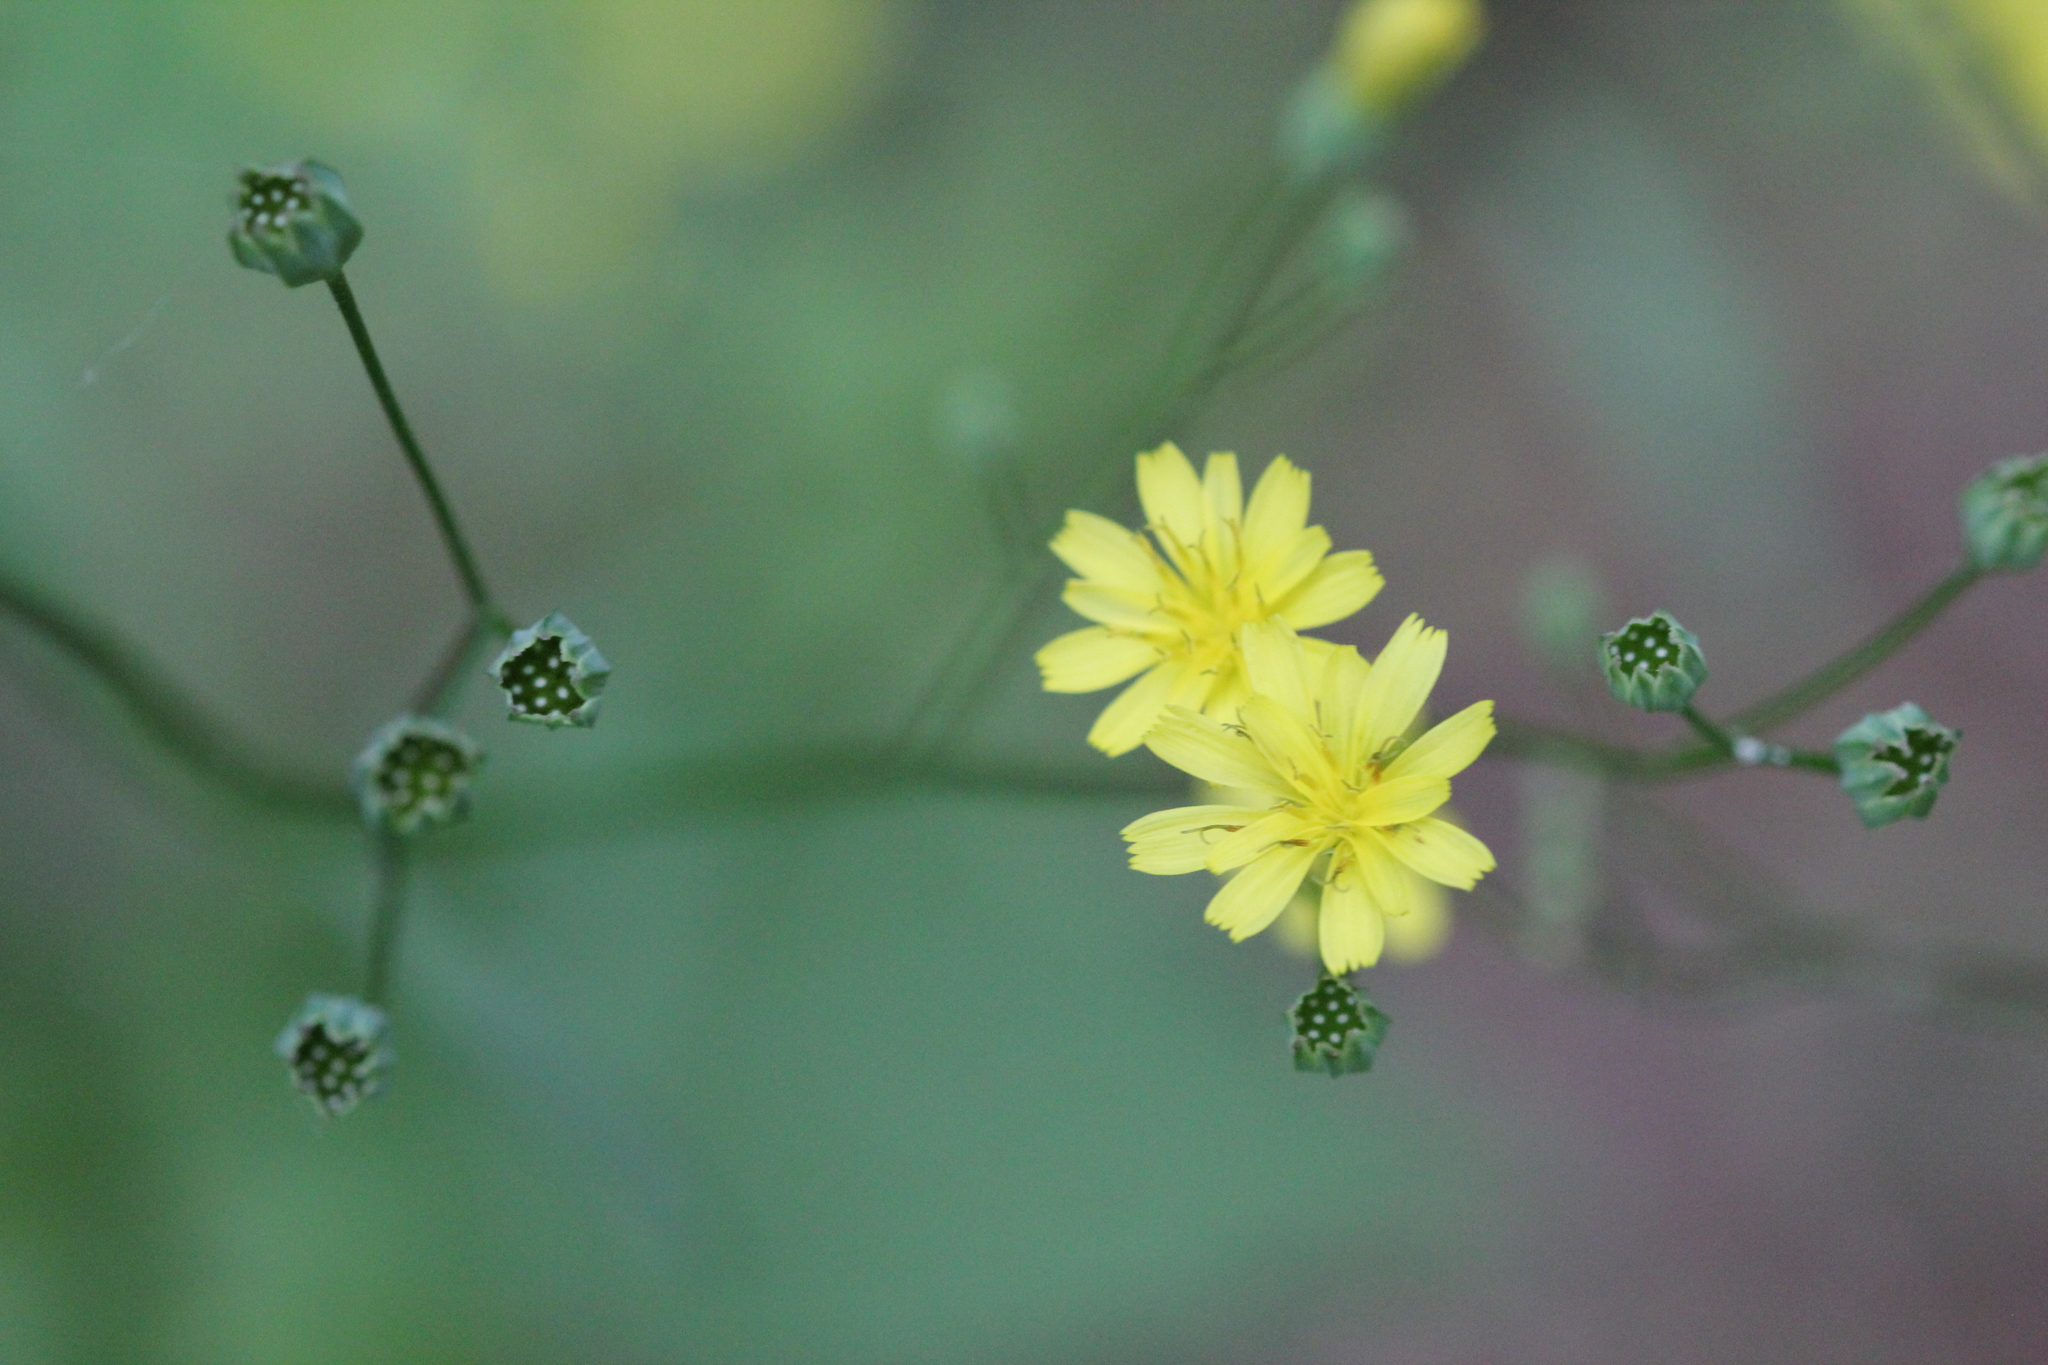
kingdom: Plantae
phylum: Tracheophyta
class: Magnoliopsida
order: Asterales
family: Asteraceae
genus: Lapsana
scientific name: Lapsana communis
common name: Nipplewort
